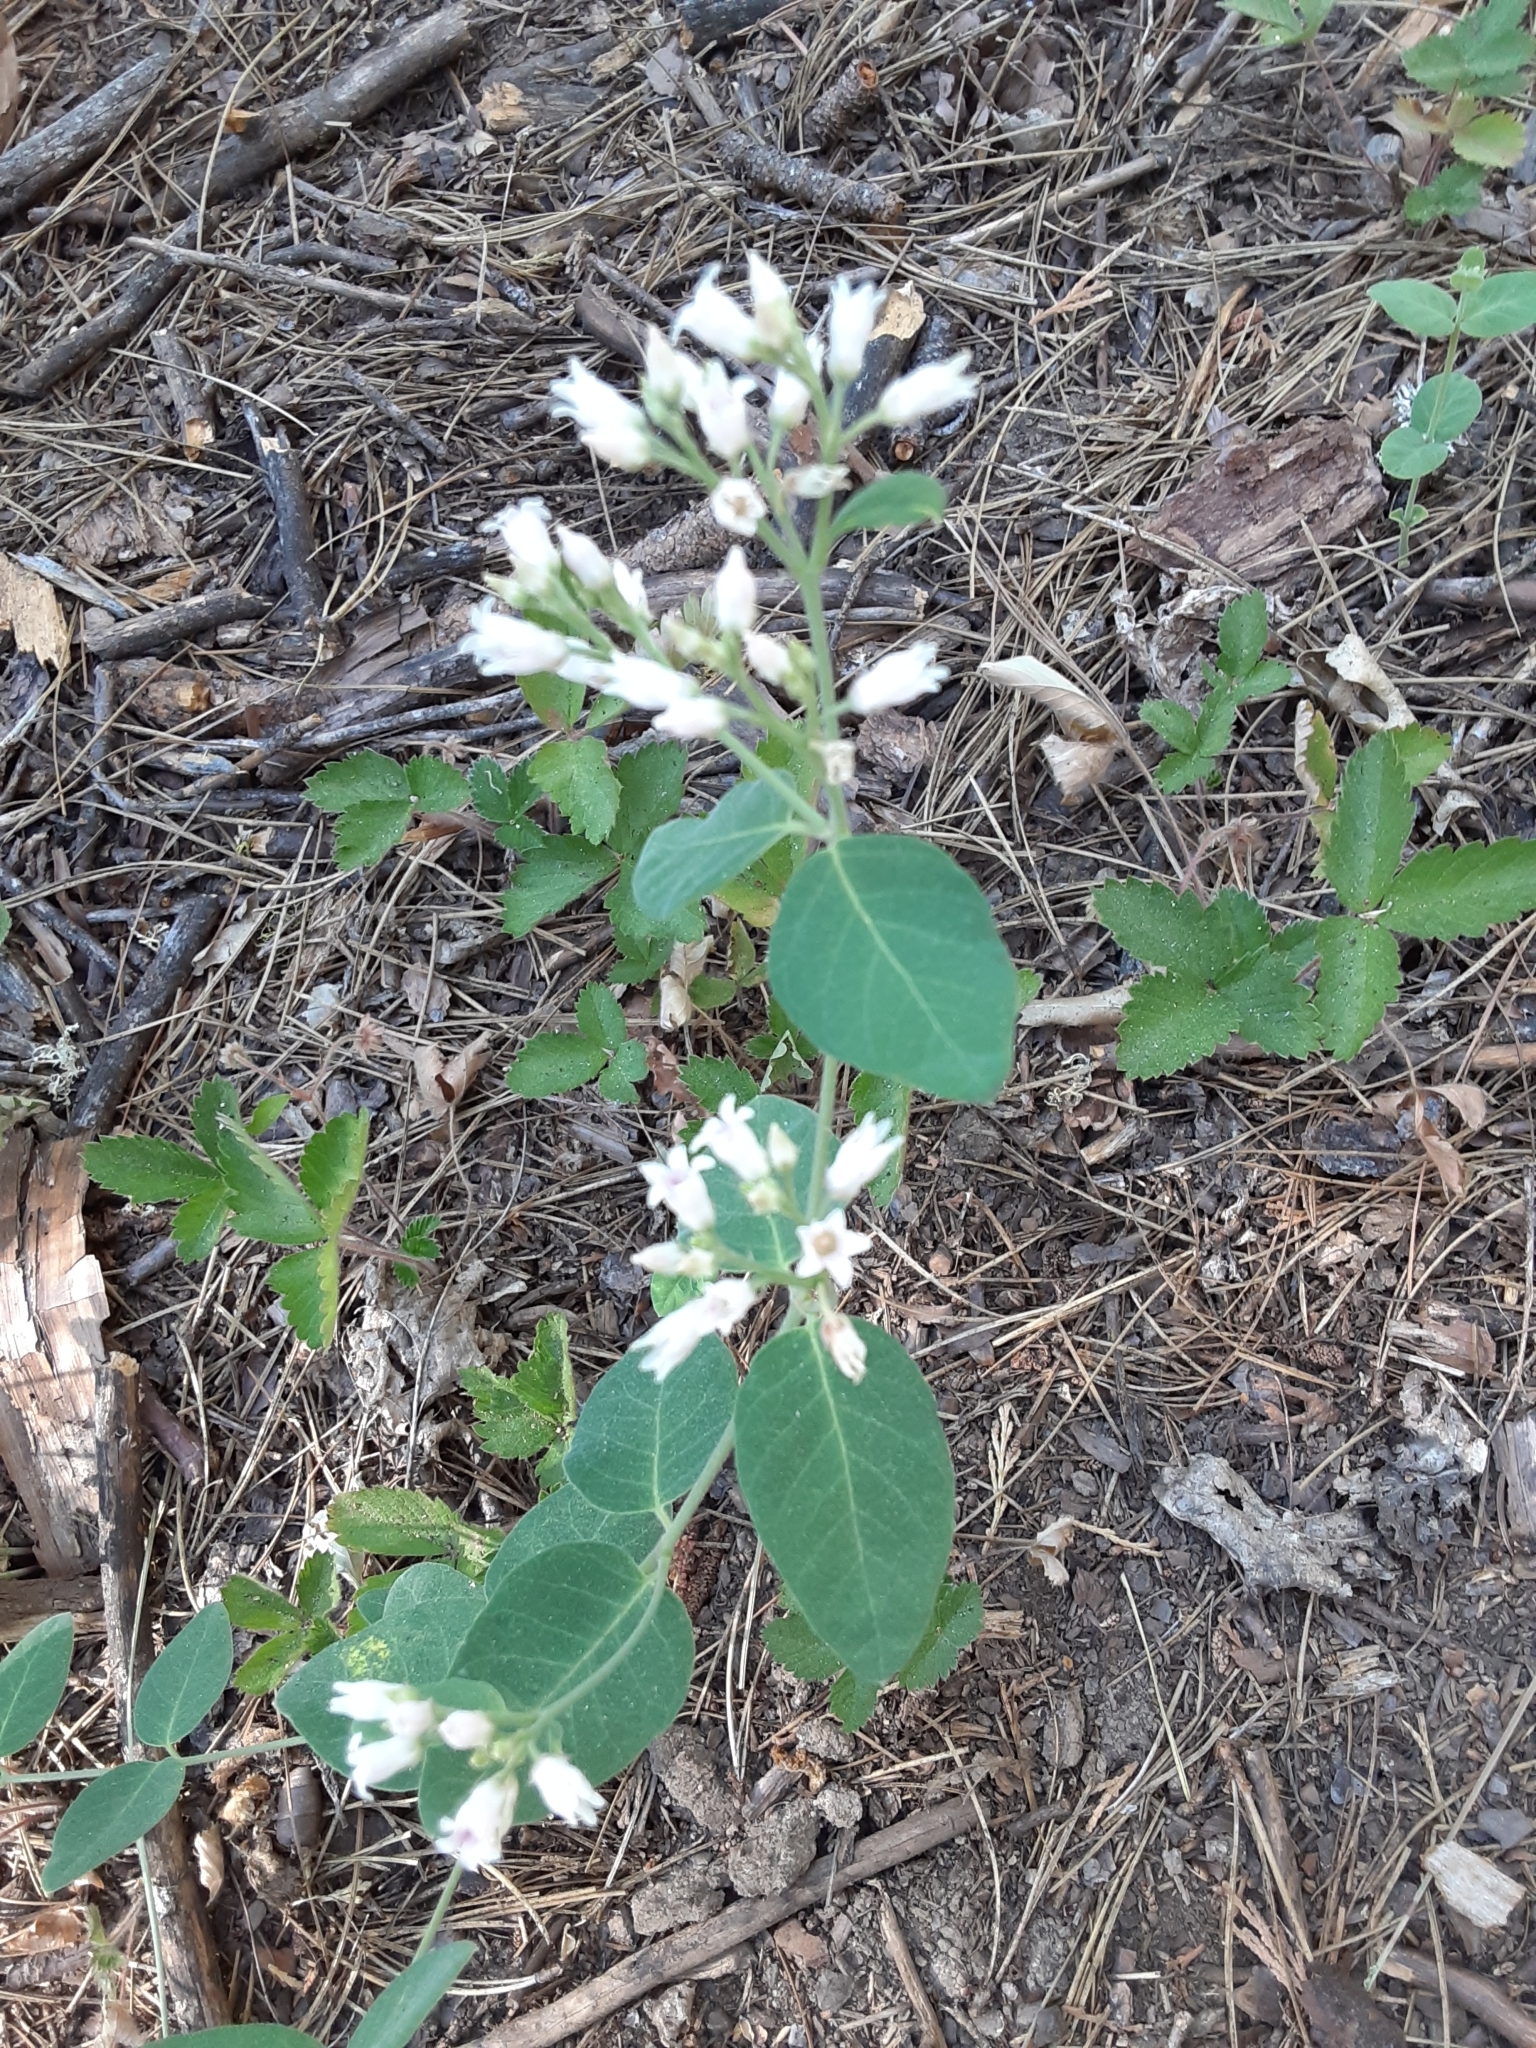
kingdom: Plantae
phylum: Tracheophyta
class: Magnoliopsida
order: Gentianales
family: Apocynaceae
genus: Apocynum
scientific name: Apocynum androsaemifolium
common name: Spreading dogbane
